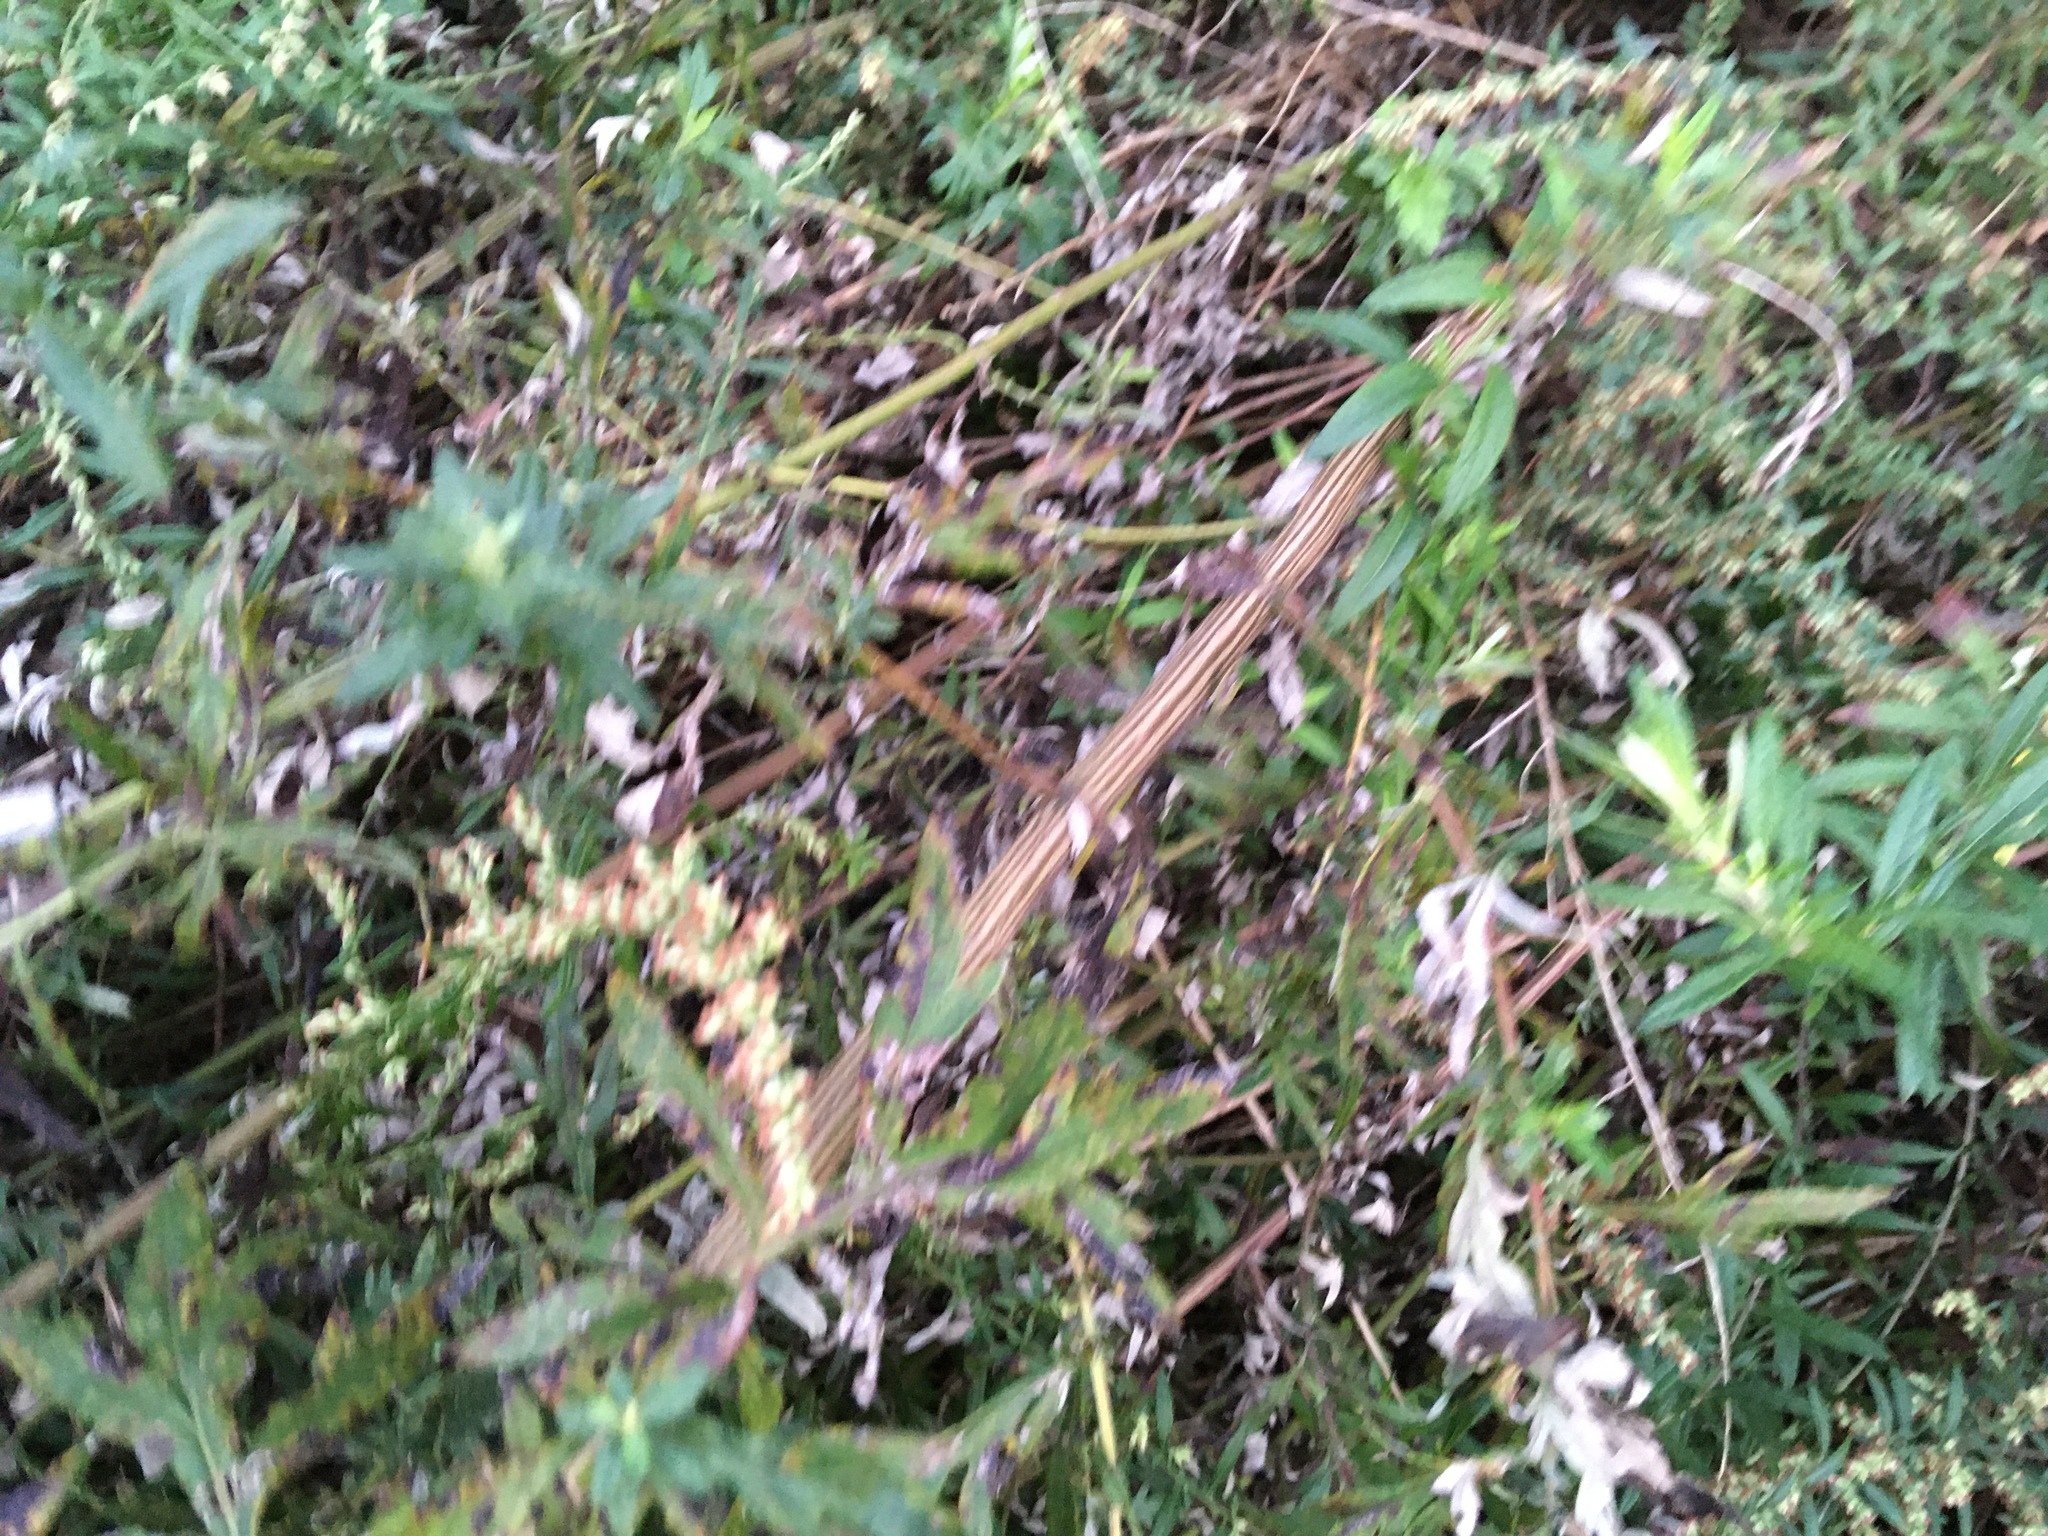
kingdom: Plantae
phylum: Tracheophyta
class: Magnoliopsida
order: Asterales
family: Asteraceae
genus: Artemisia
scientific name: Artemisia vulgaris
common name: Mugwort
